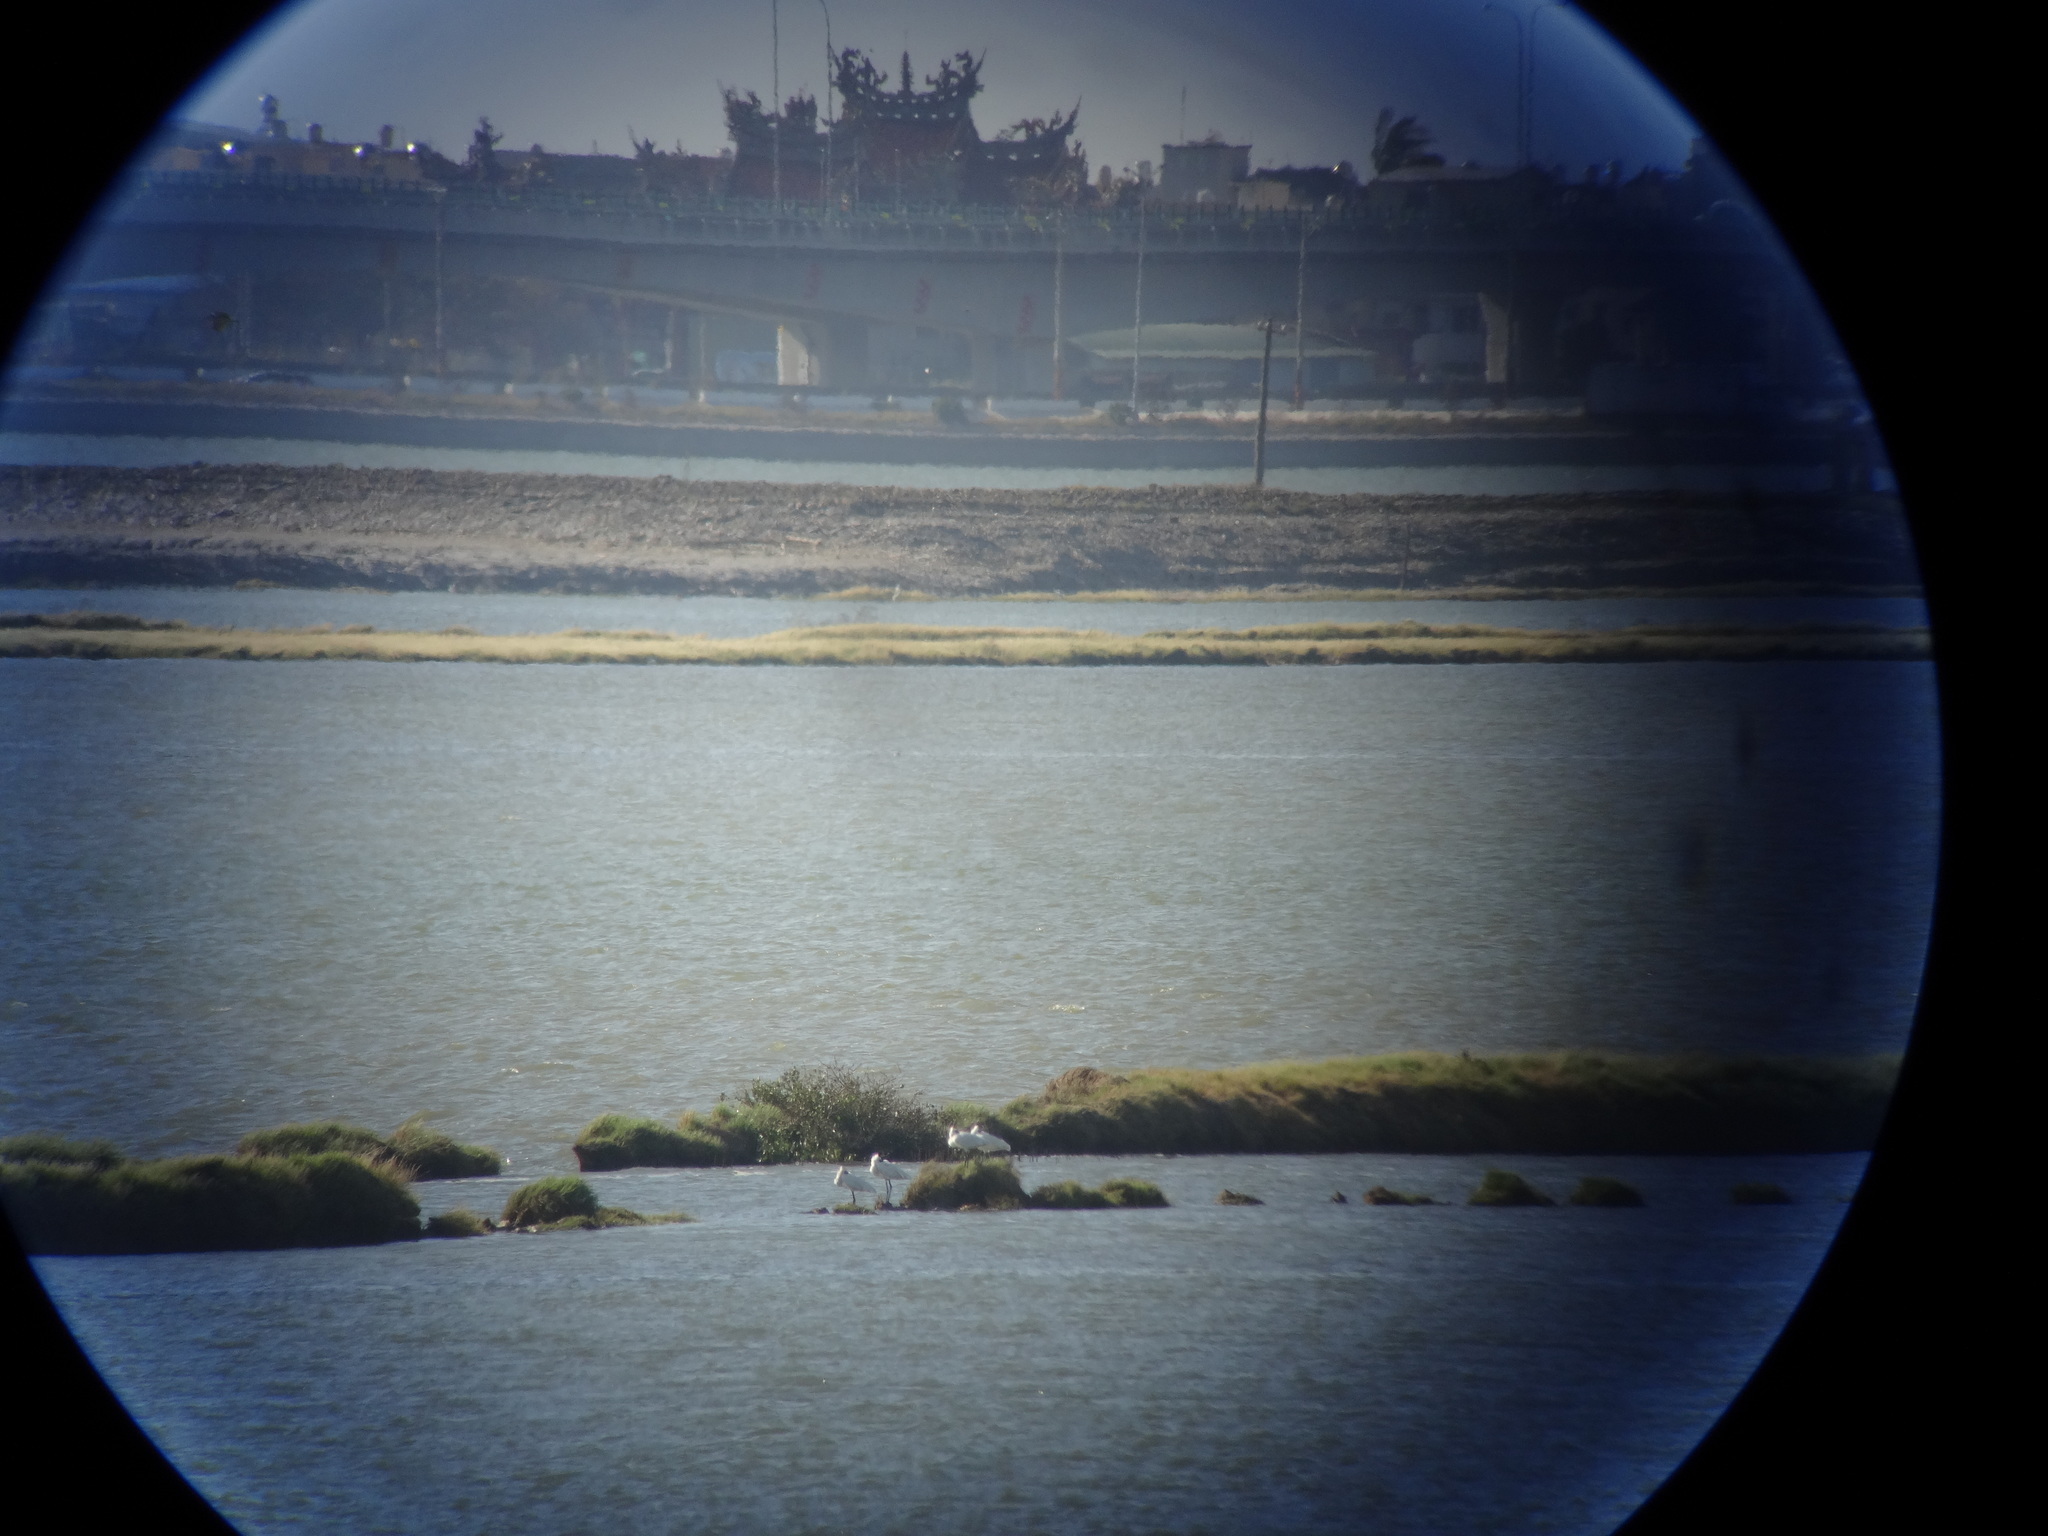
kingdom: Animalia
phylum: Chordata
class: Aves
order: Pelecaniformes
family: Threskiornithidae
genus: Platalea
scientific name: Platalea minor
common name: Black-faced spoonbill
